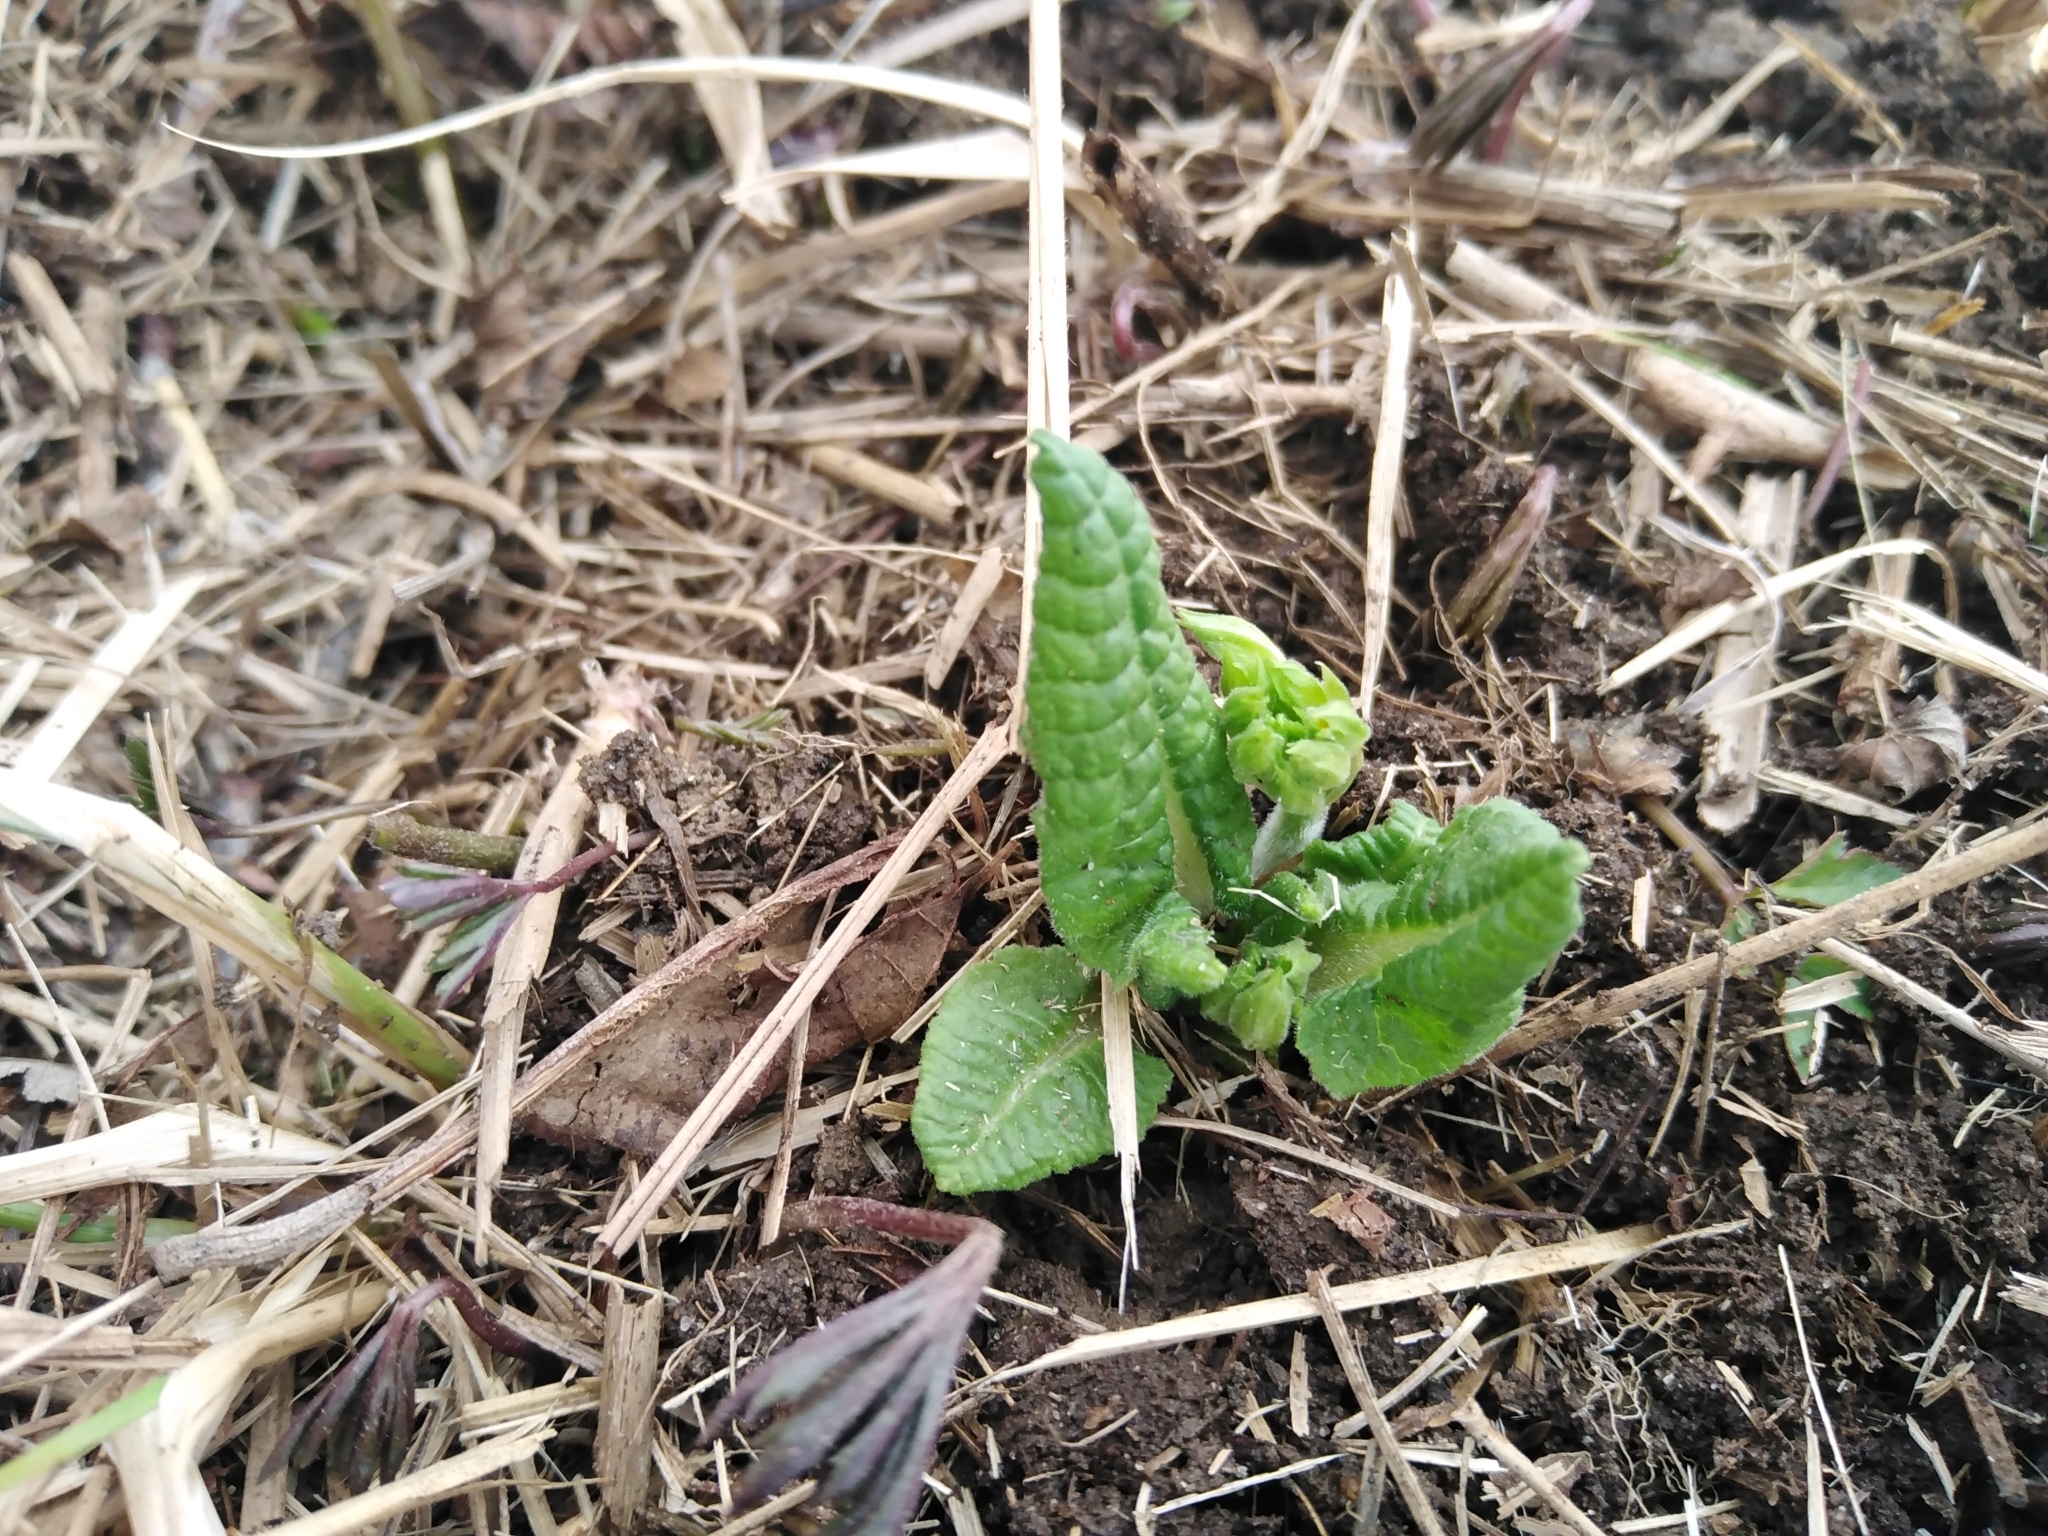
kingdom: Plantae
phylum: Tracheophyta
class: Magnoliopsida
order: Ericales
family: Primulaceae
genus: Primula
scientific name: Primula elatior
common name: Oxlip
